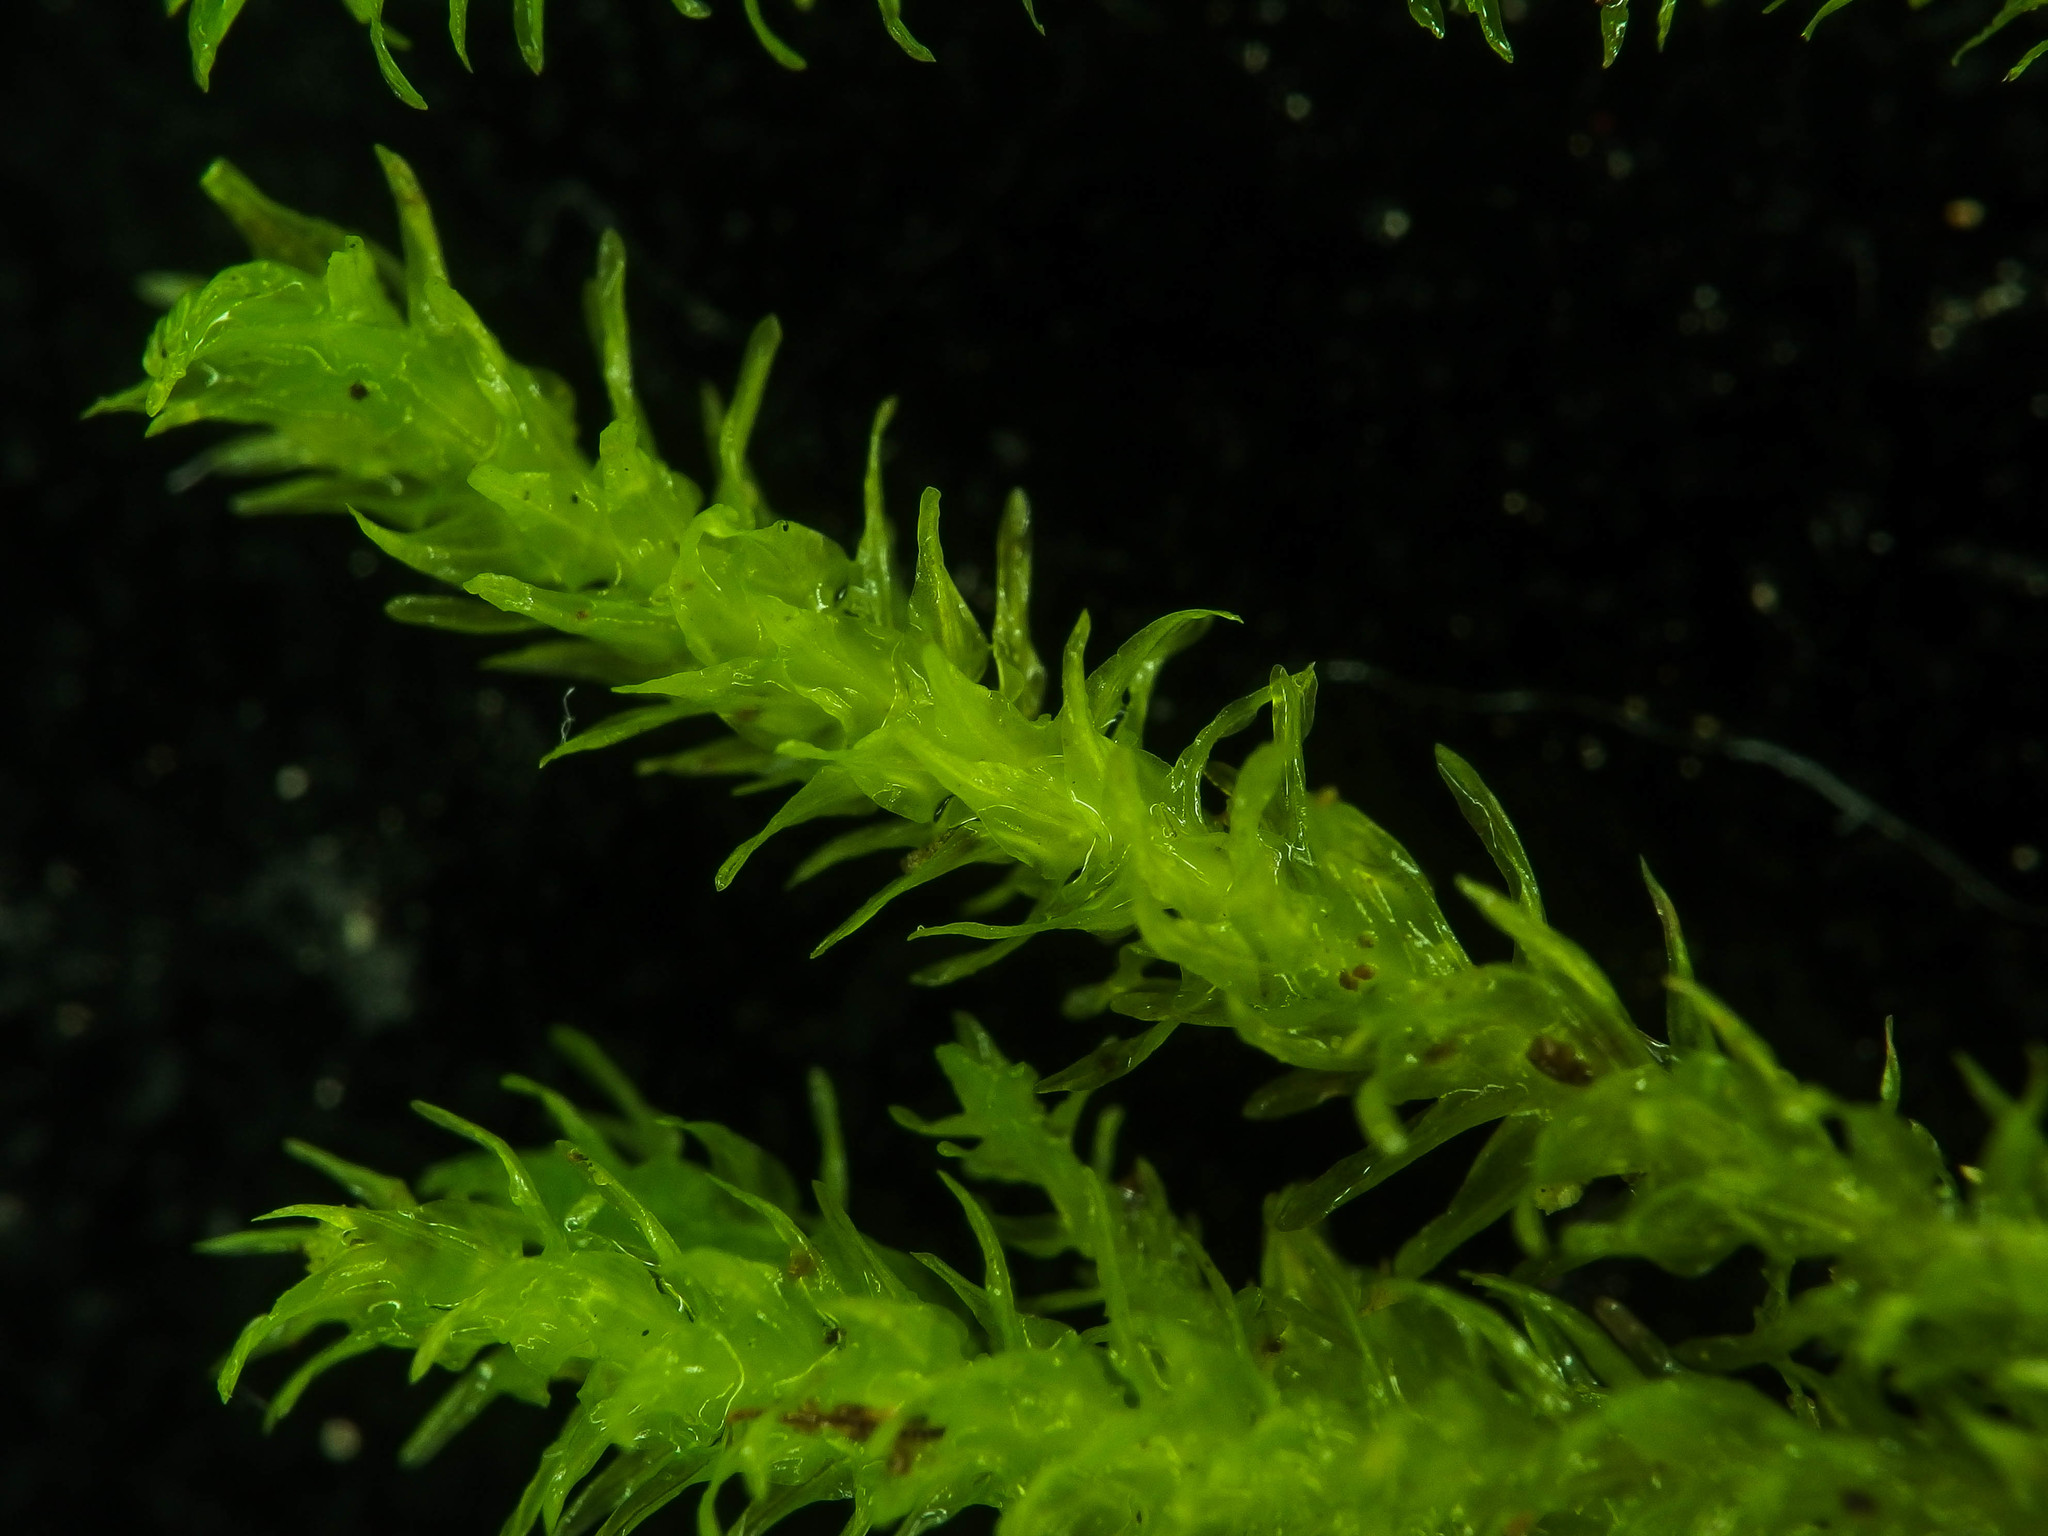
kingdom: Plantae
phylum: Bryophyta
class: Bryopsida
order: Hypnales
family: Anomodontaceae
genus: Anomodon
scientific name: Anomodon viticulosus
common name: Tall anomodon
